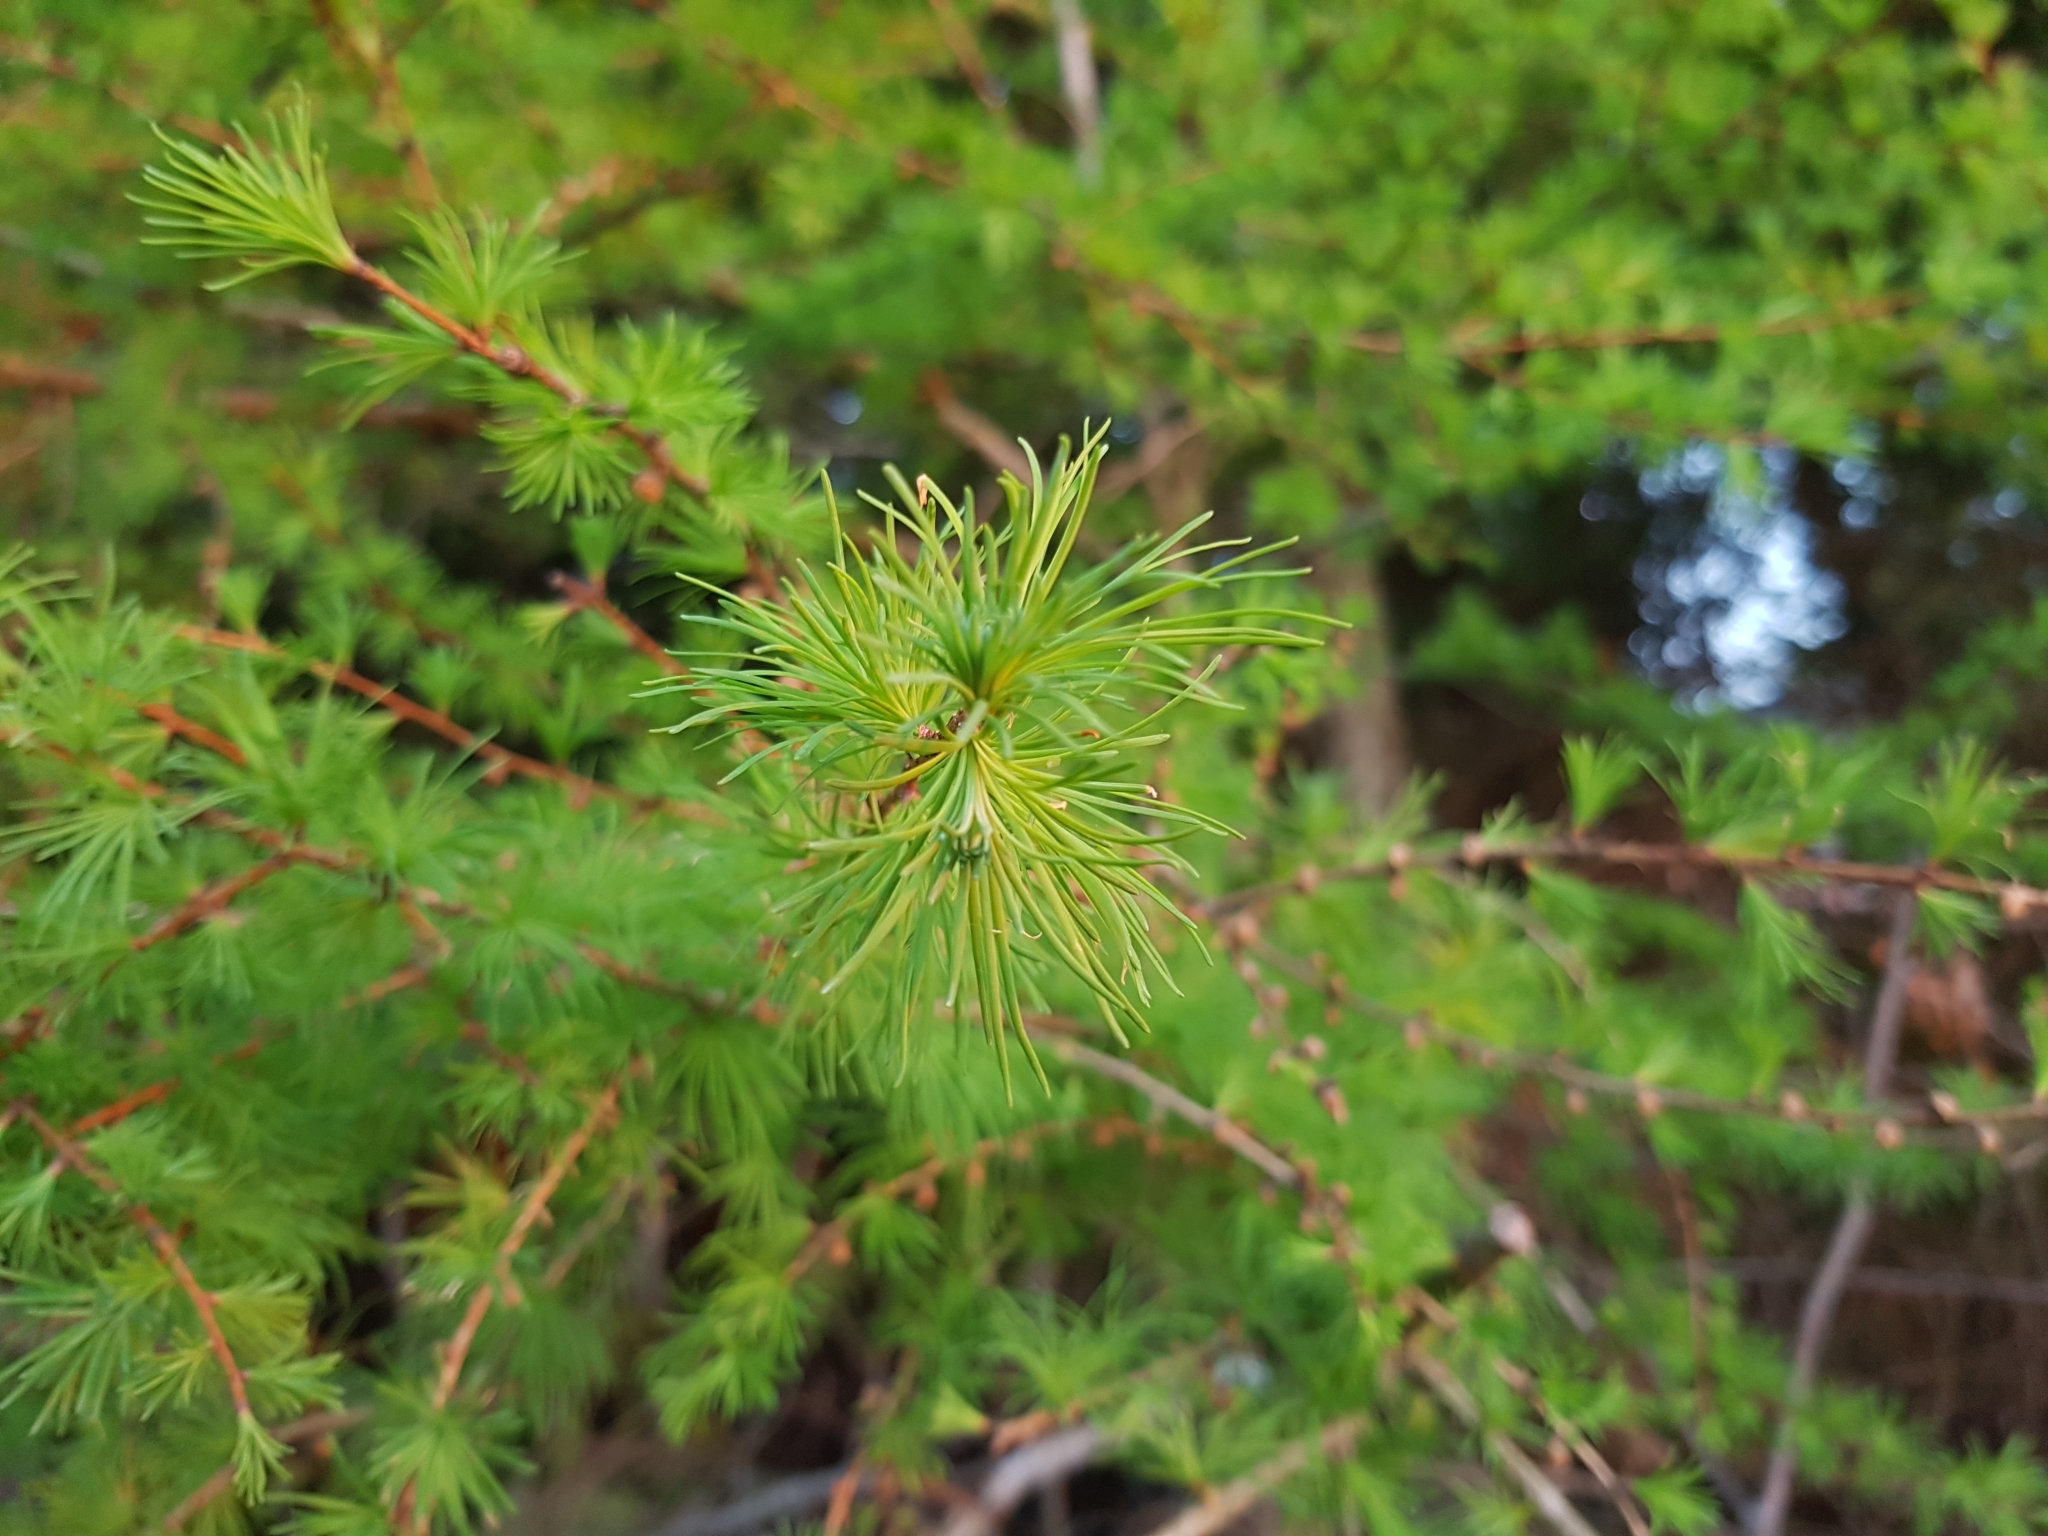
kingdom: Plantae
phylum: Tracheophyta
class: Pinopsida
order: Pinales
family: Pinaceae
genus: Larix
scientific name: Larix laricina
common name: American larch
